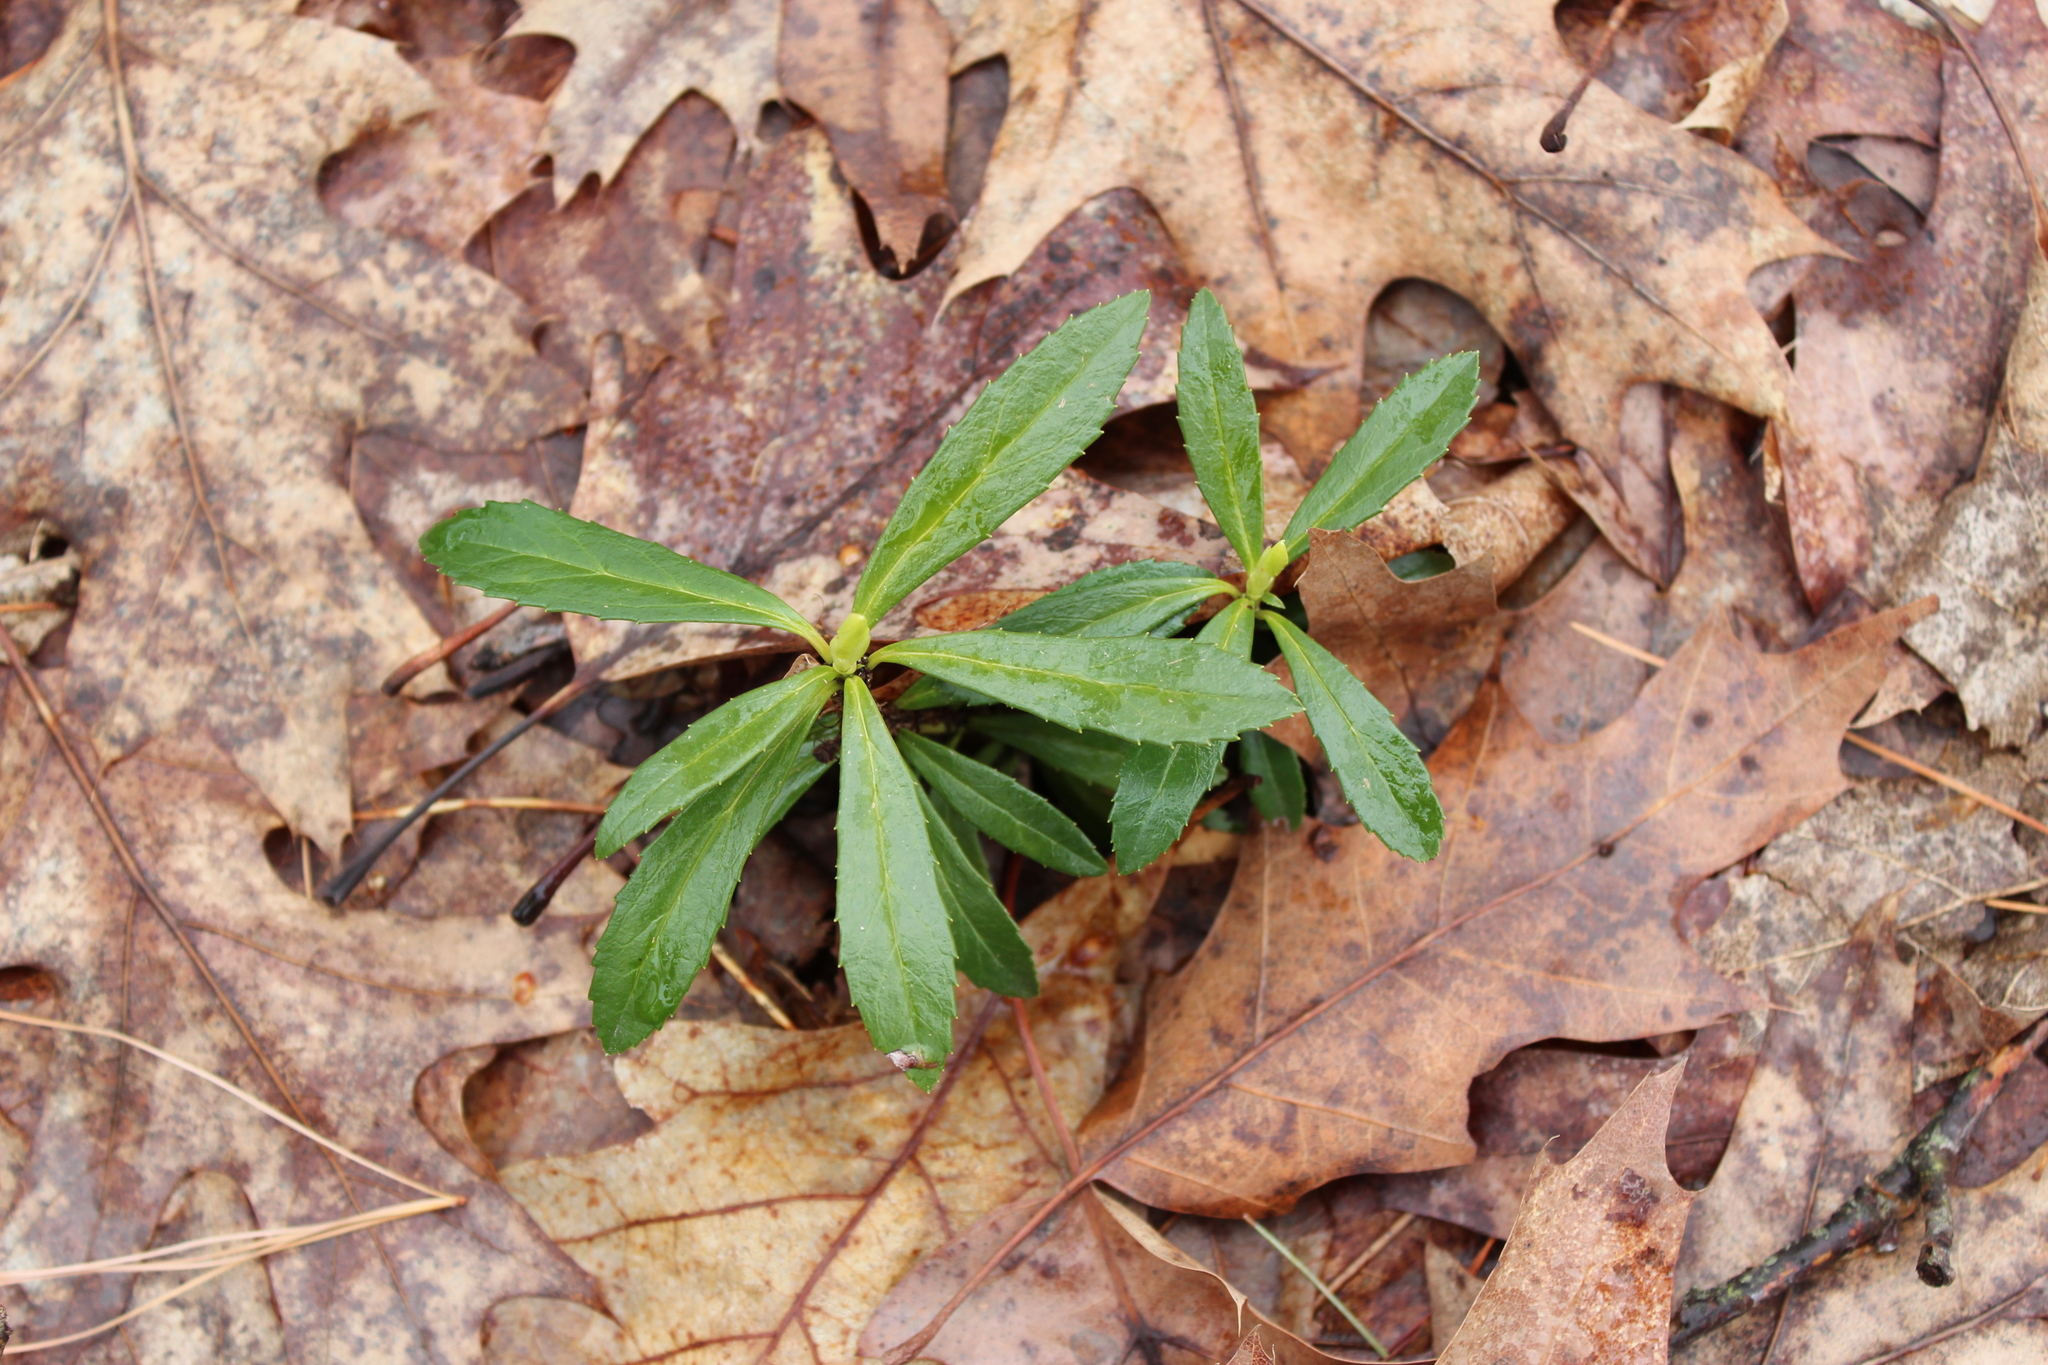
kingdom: Plantae
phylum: Tracheophyta
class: Magnoliopsida
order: Ericales
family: Ericaceae
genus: Chimaphila
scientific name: Chimaphila umbellata
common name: Pipsissewa
